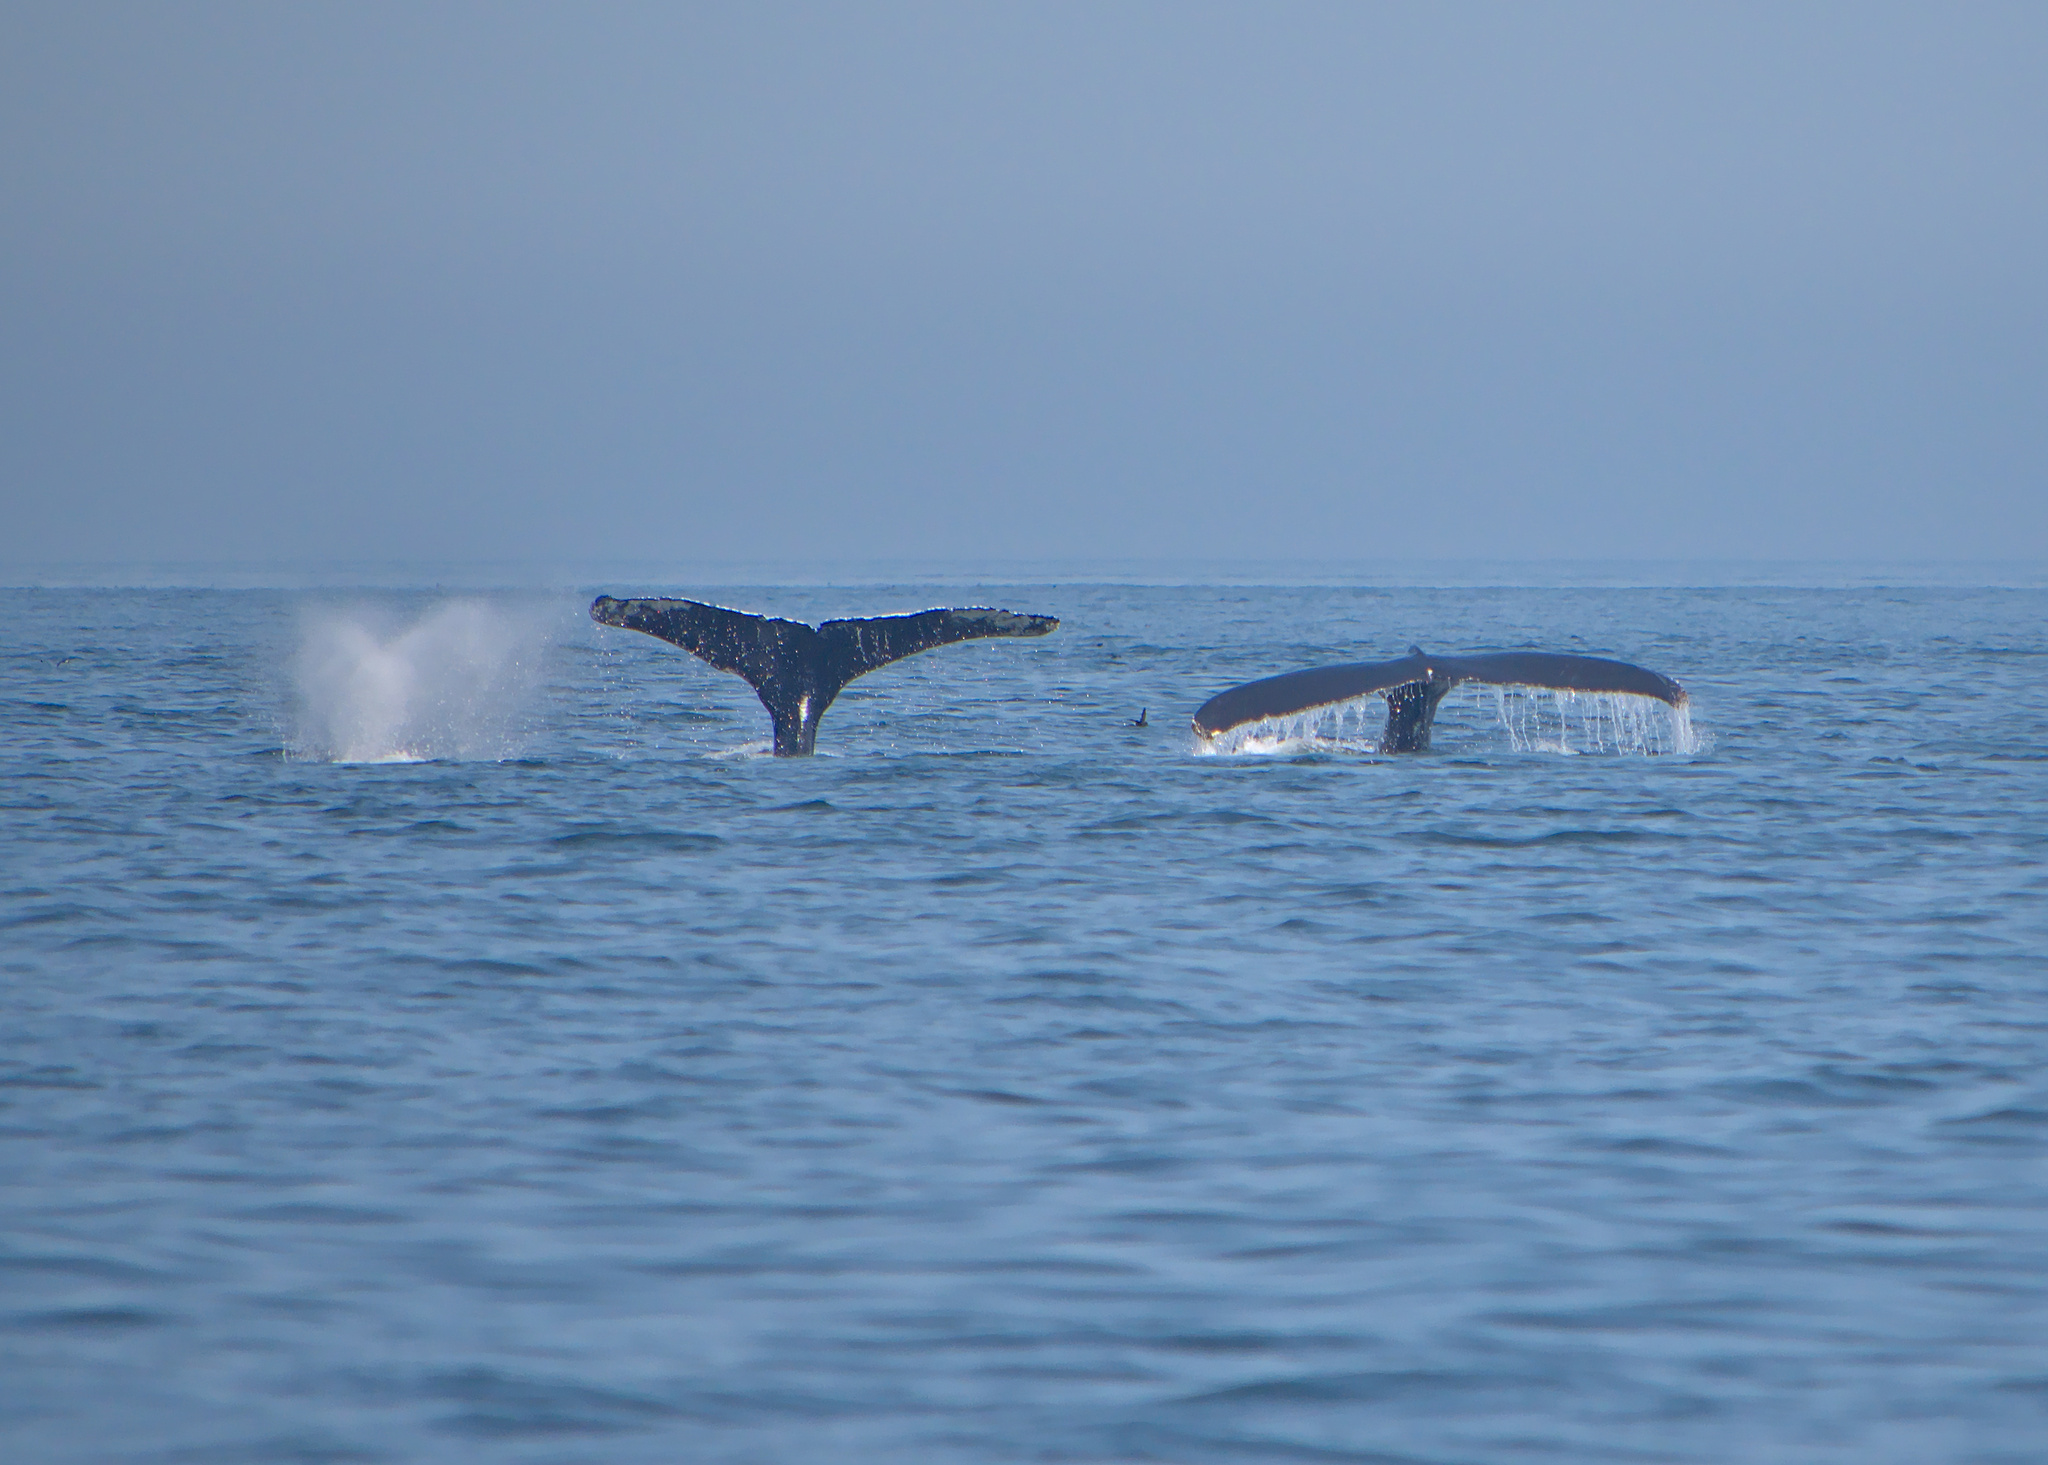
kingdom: Animalia
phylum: Chordata
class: Mammalia
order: Cetacea
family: Balaenopteridae
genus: Megaptera
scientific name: Megaptera novaeangliae
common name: Humpback whale
